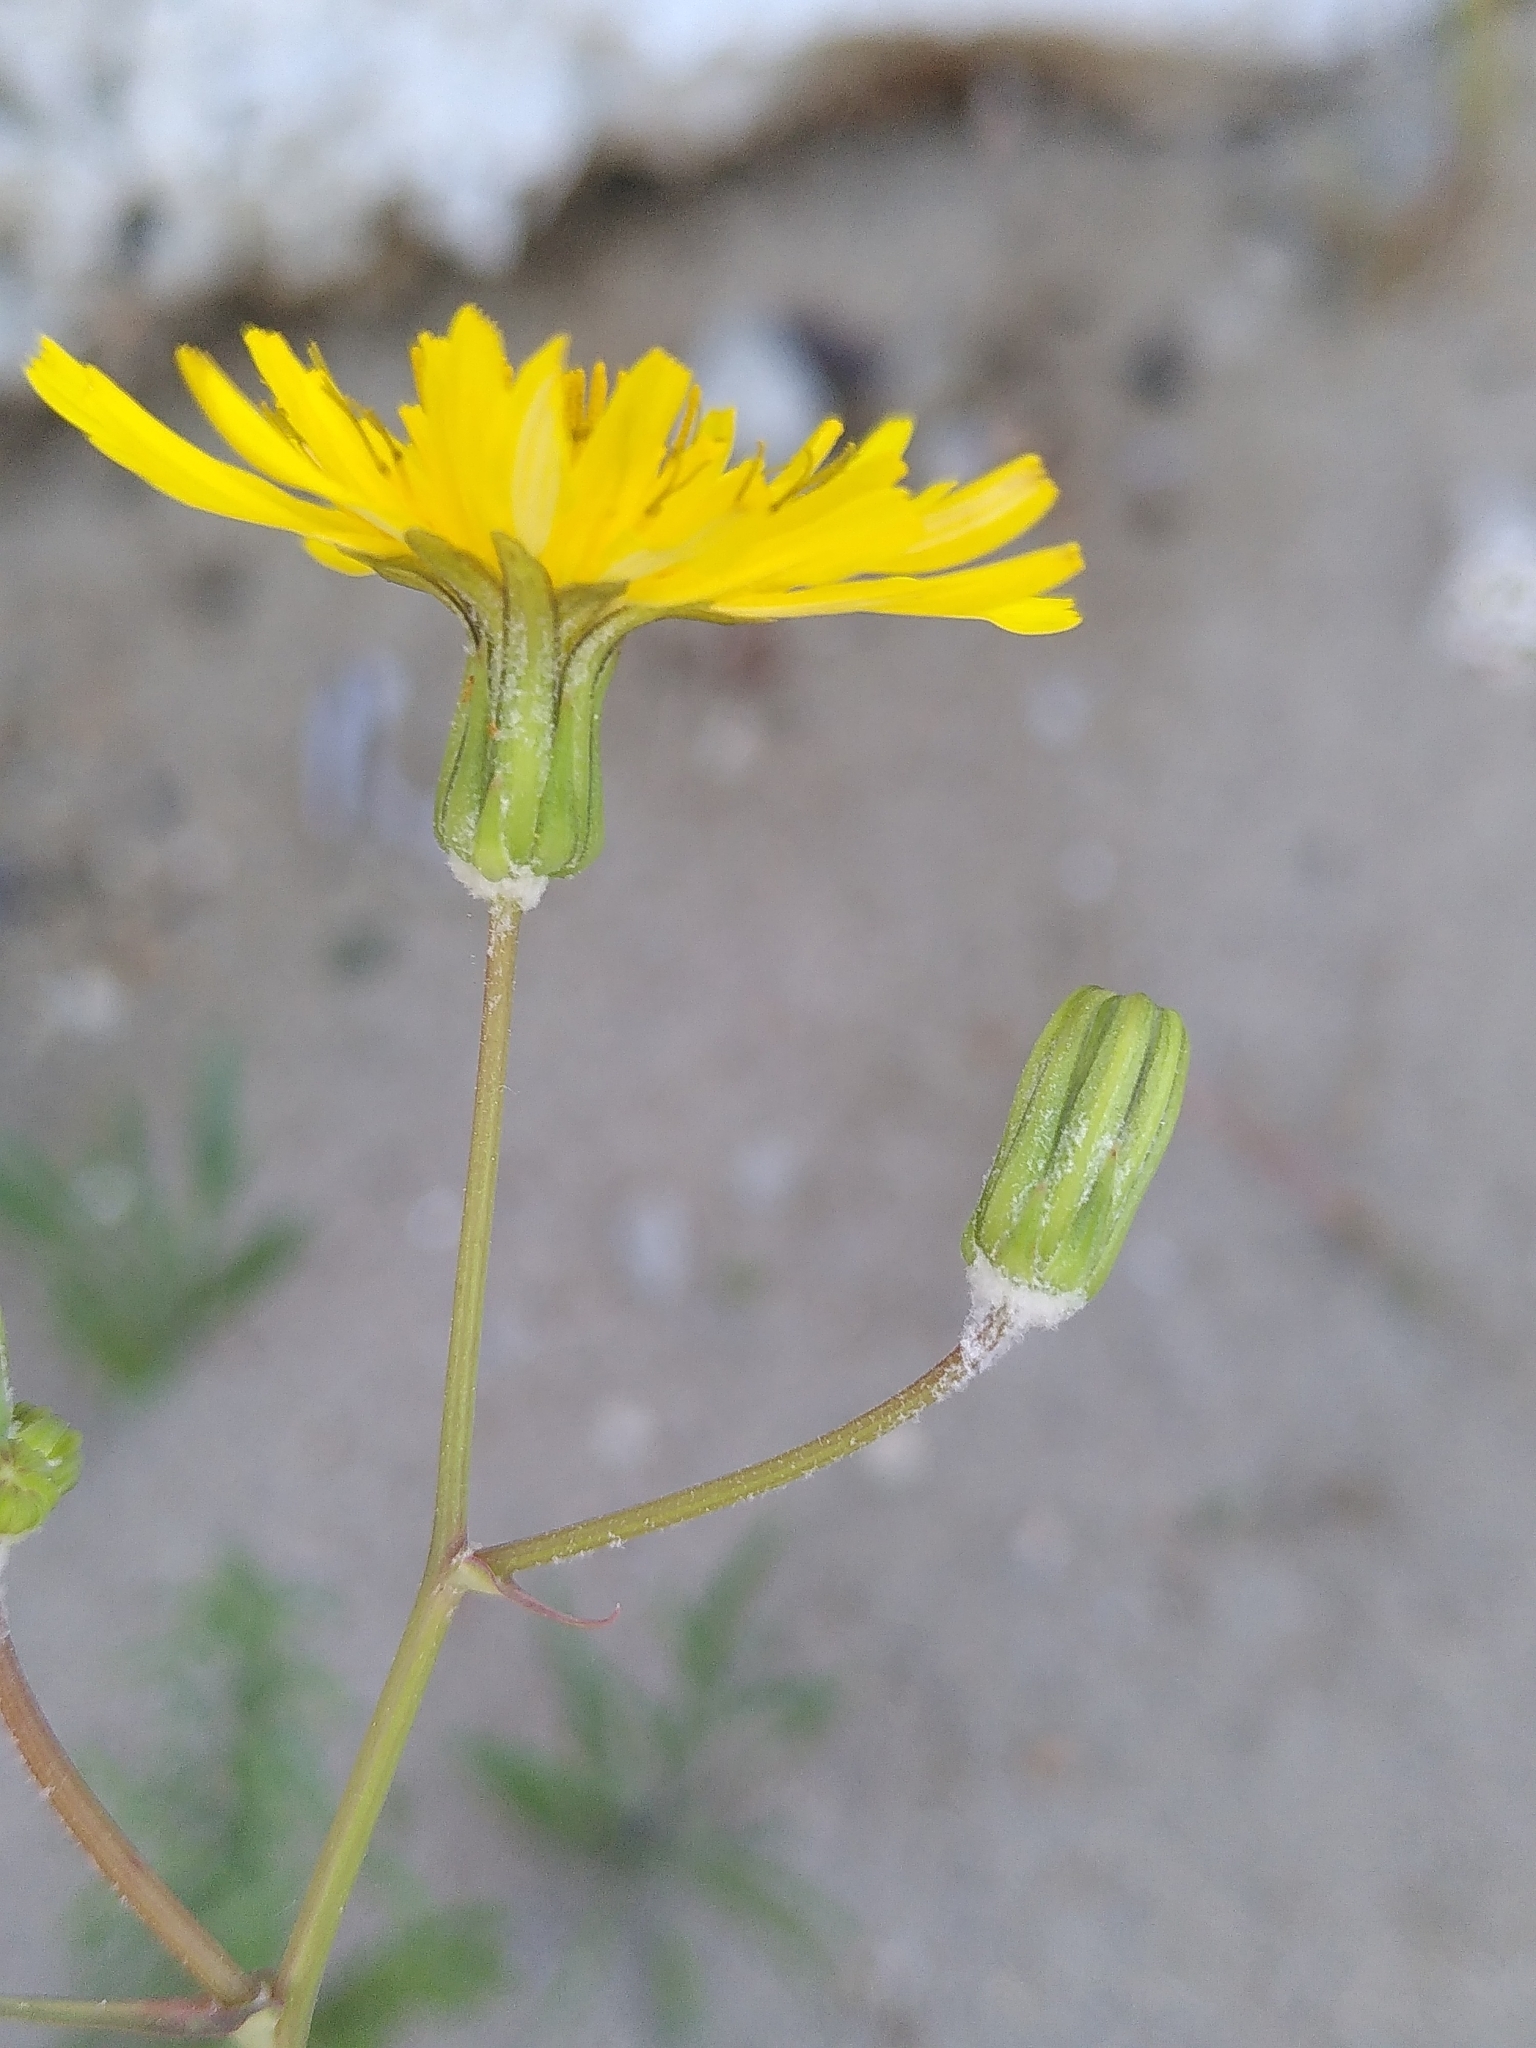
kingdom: Plantae
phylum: Tracheophyta
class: Magnoliopsida
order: Asterales
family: Asteraceae
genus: Sonchus
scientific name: Sonchus tenerrimus
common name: Clammy sowthistle
